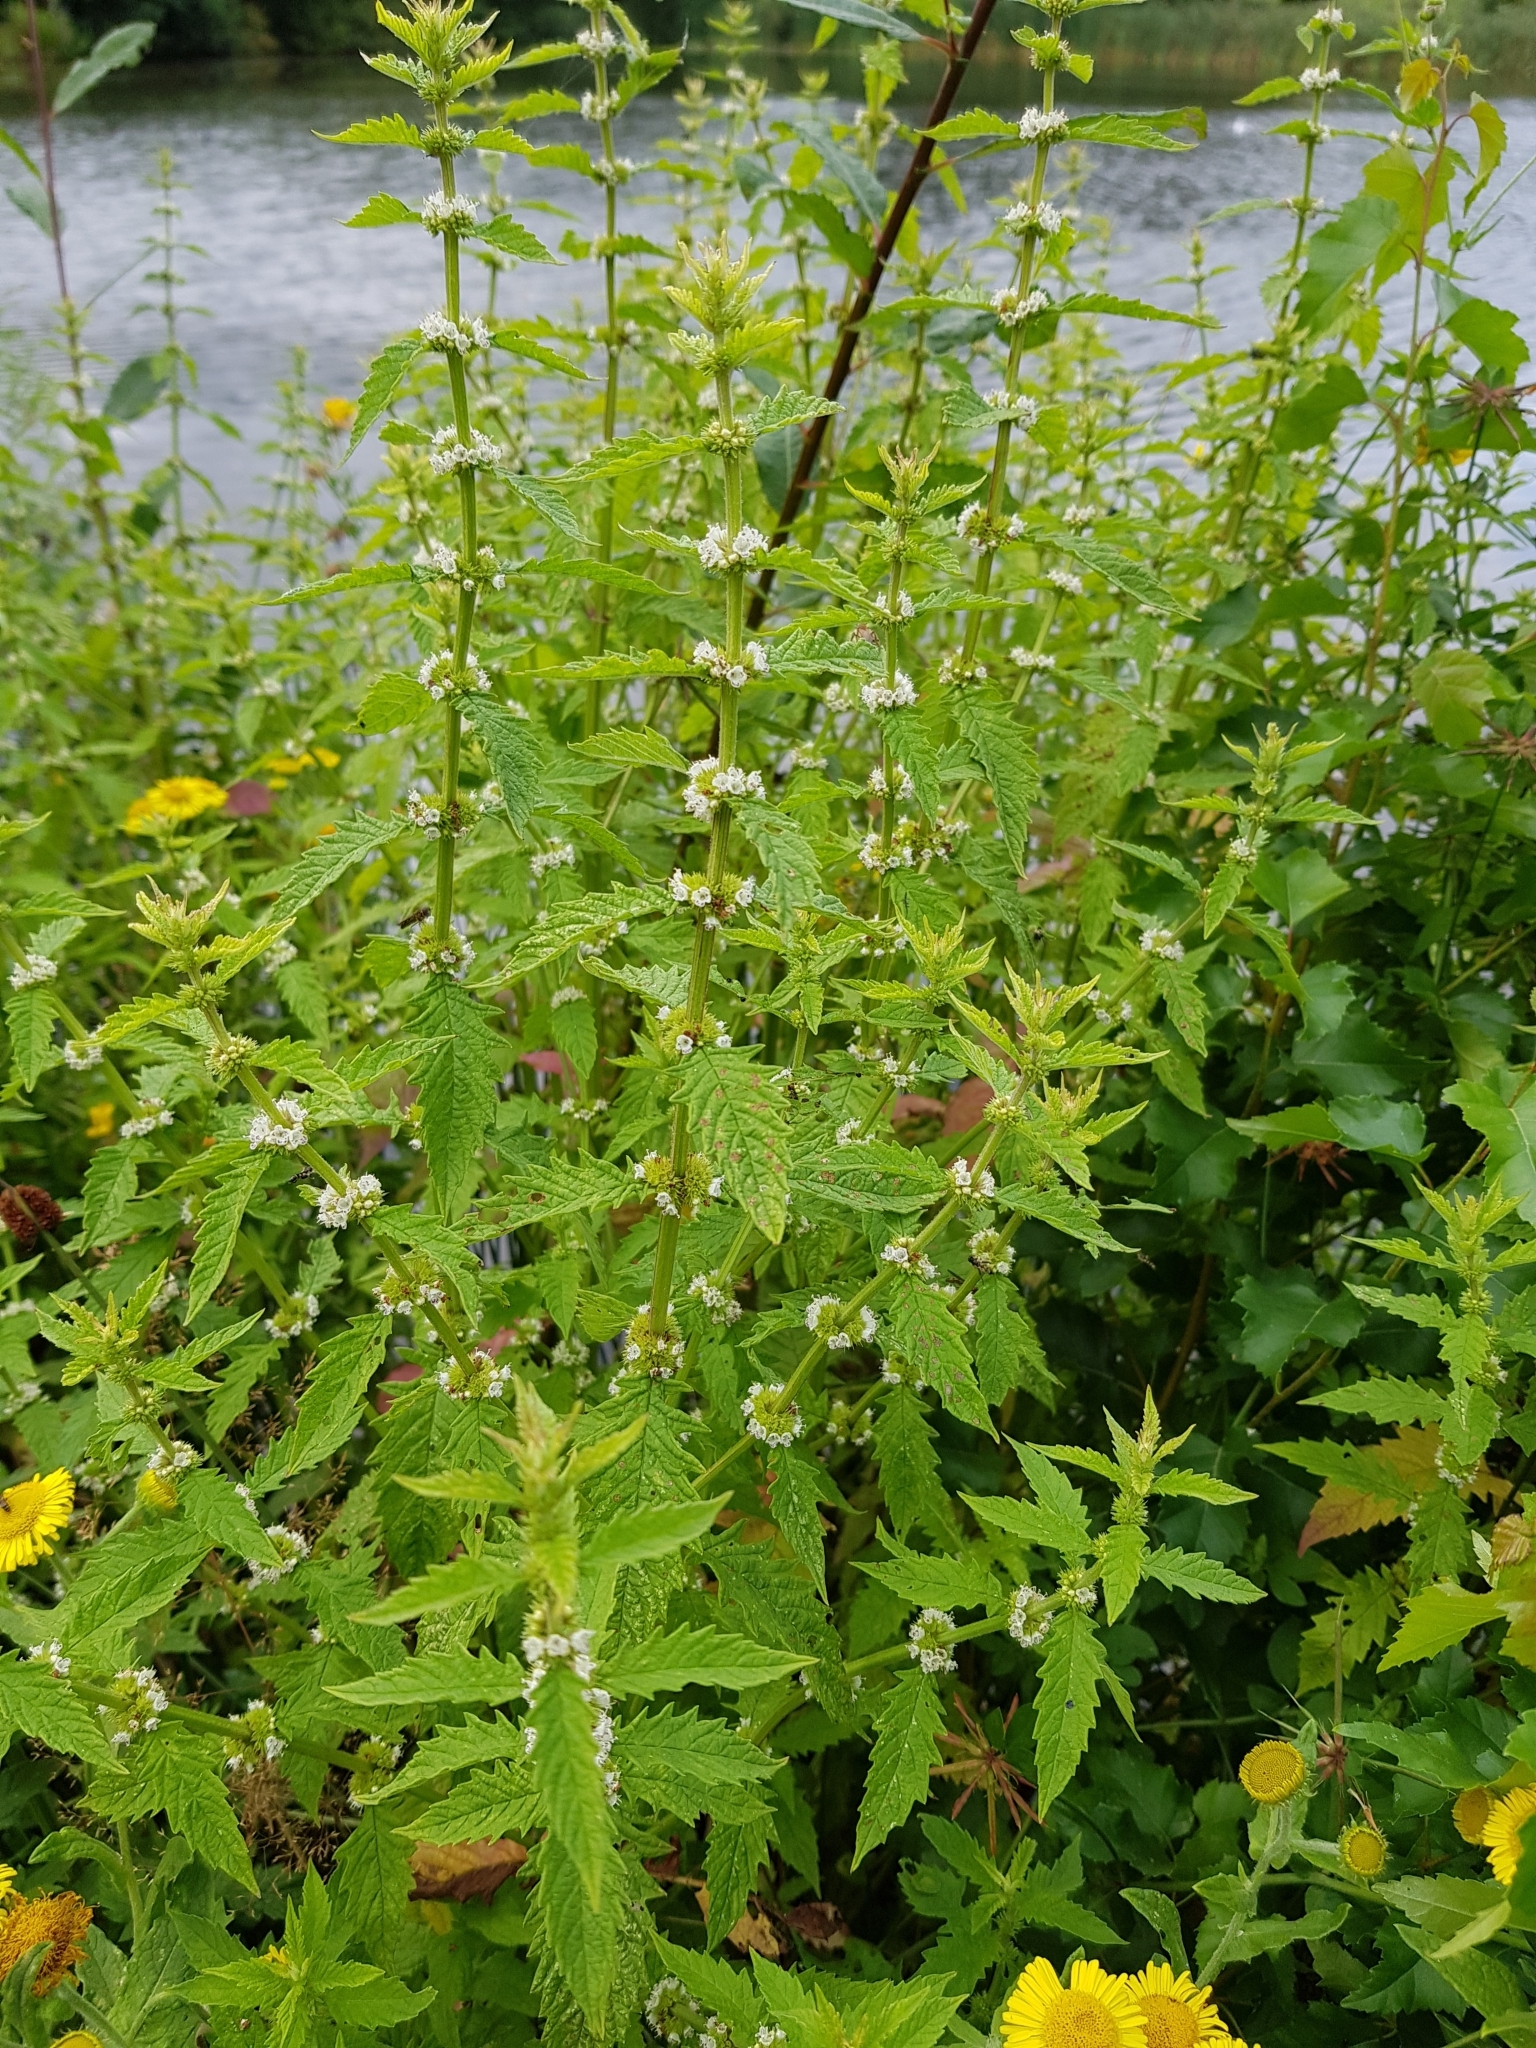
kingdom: Plantae
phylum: Tracheophyta
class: Magnoliopsida
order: Lamiales
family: Lamiaceae
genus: Lycopus
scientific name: Lycopus europaeus
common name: European bugleweed
